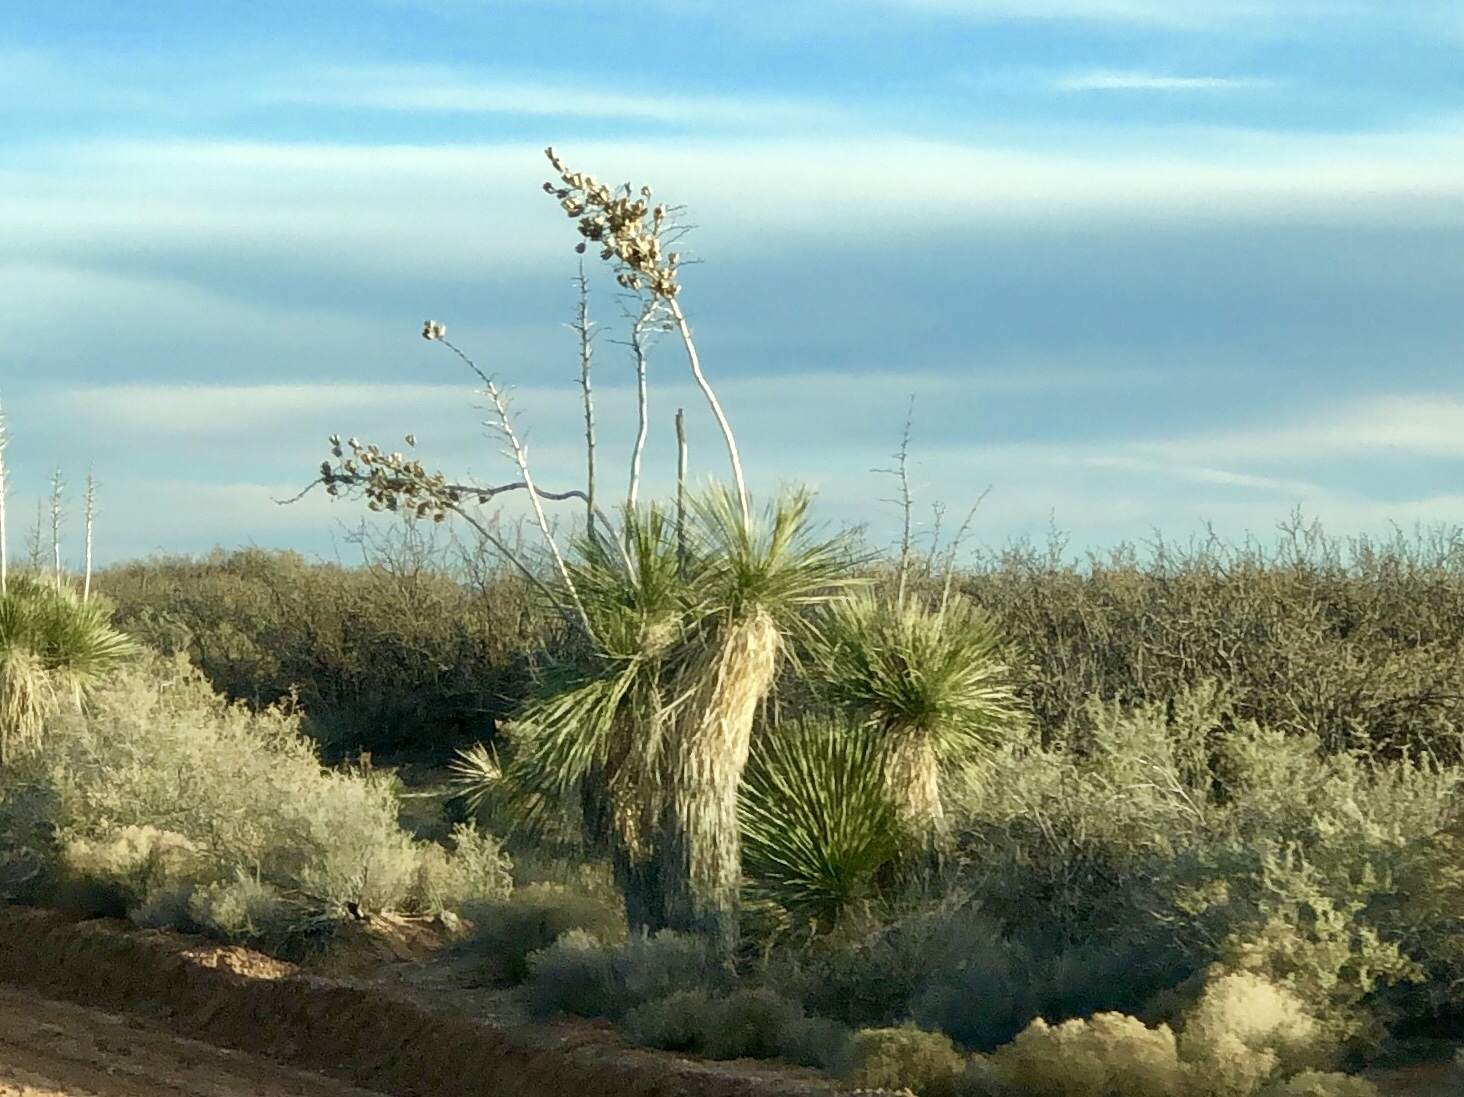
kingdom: Plantae
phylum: Tracheophyta
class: Liliopsida
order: Asparagales
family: Asparagaceae
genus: Yucca
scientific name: Yucca elata
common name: Palmella
